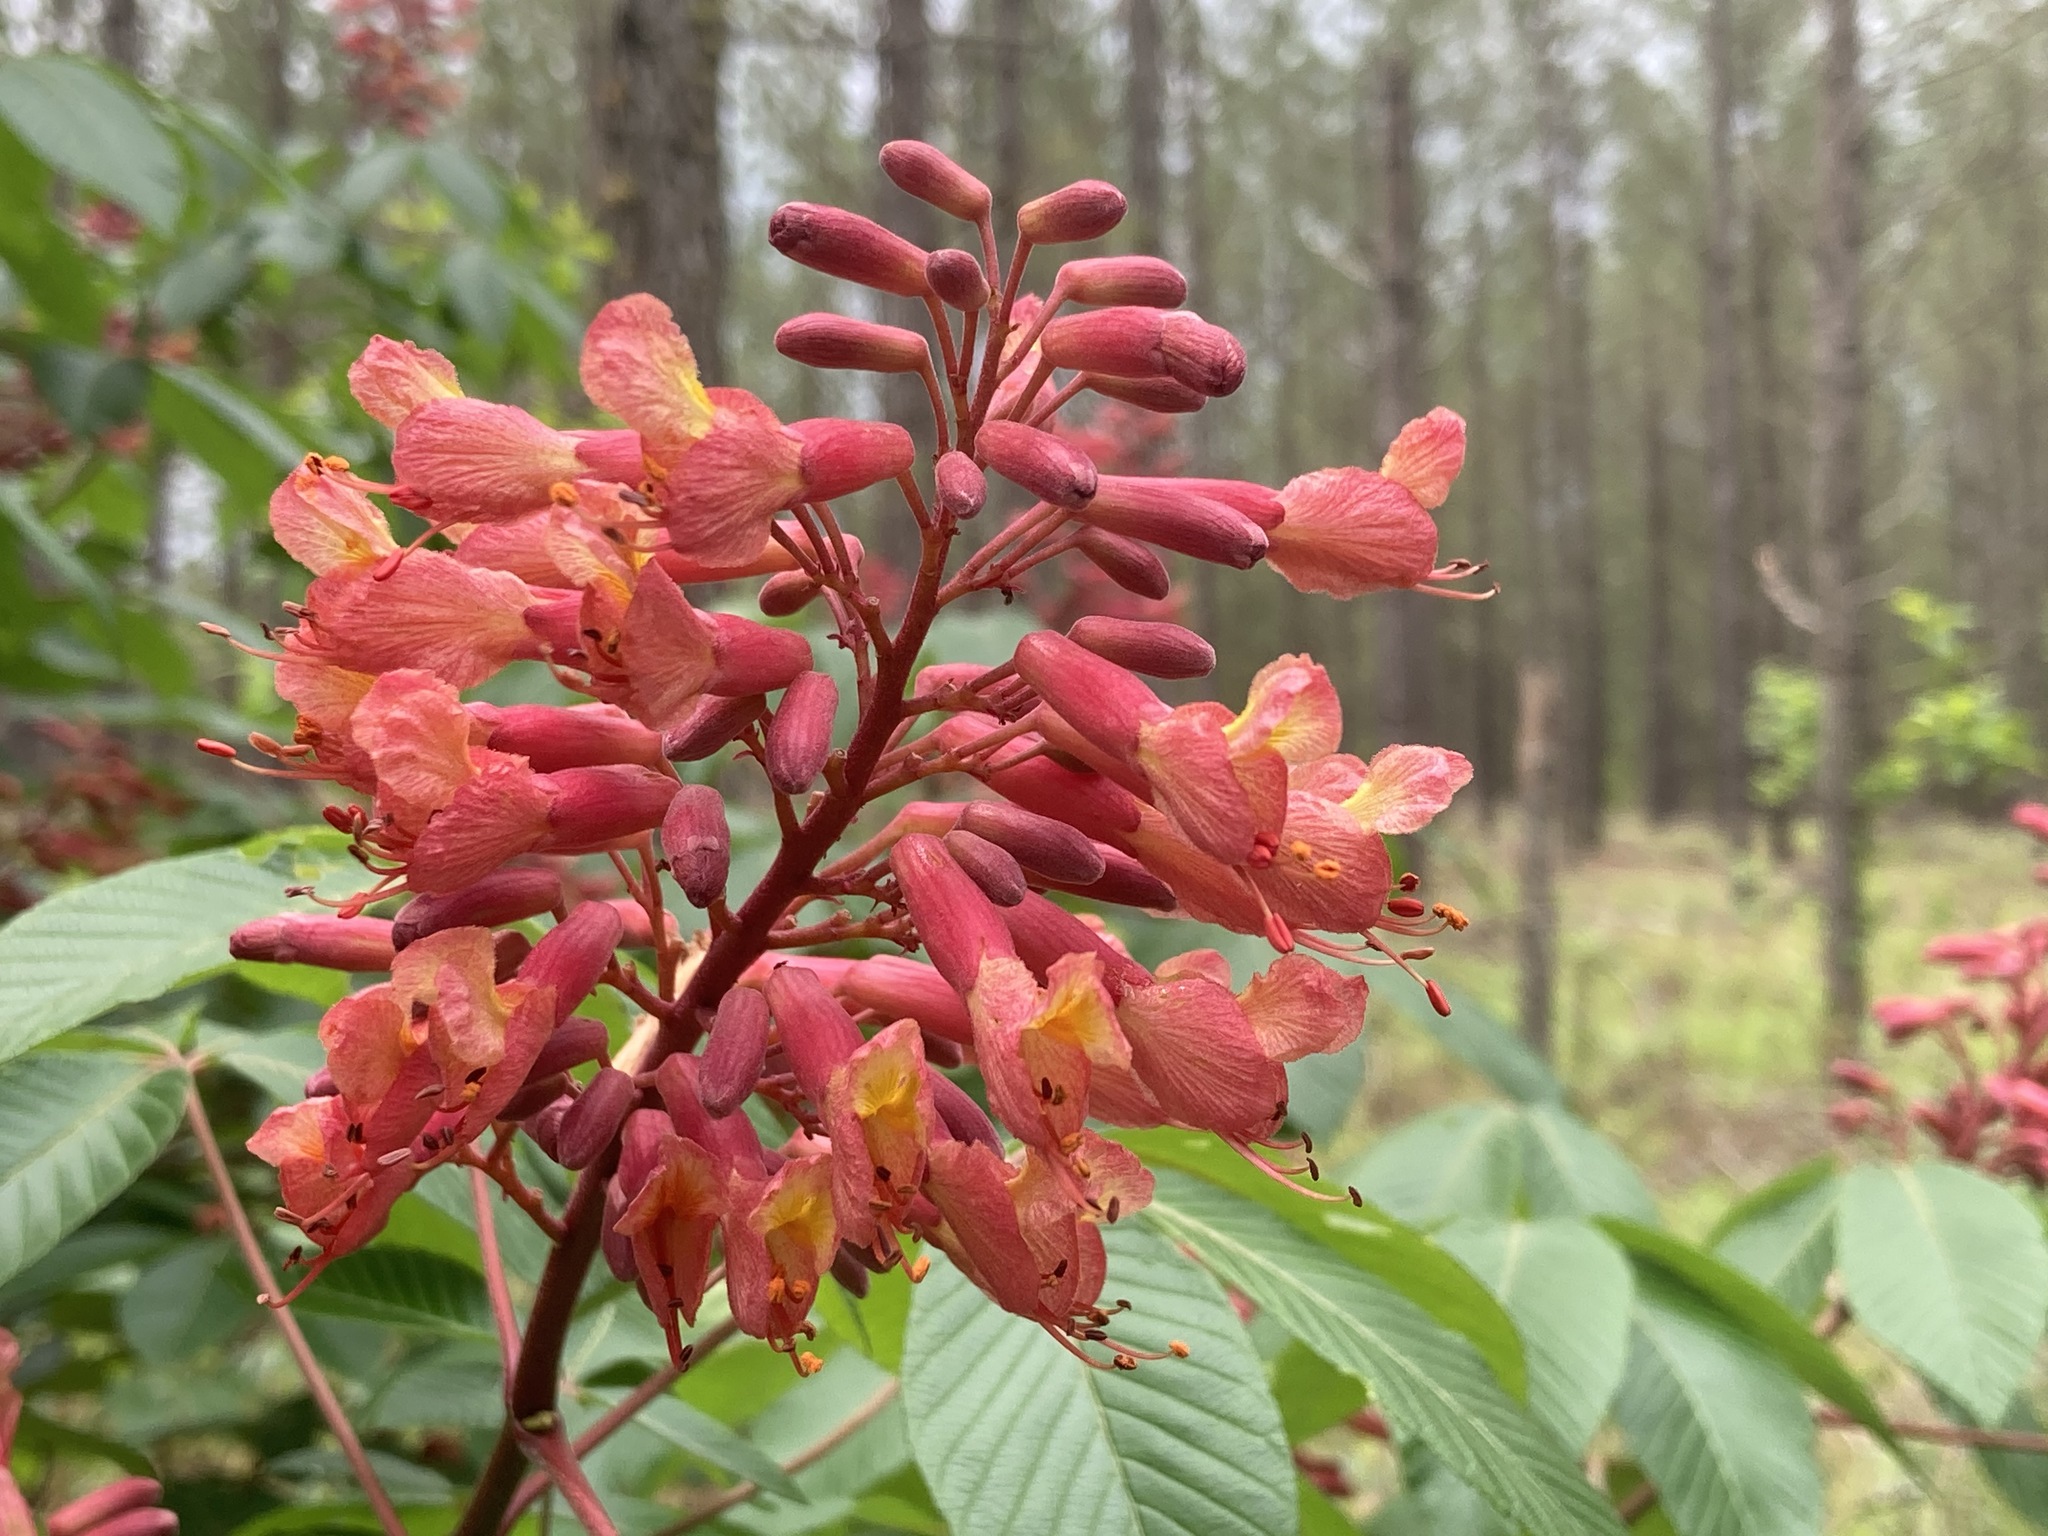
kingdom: Plantae
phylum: Tracheophyta
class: Magnoliopsida
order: Sapindales
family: Sapindaceae
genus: Aesculus
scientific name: Aesculus pavia
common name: Red buckeye
